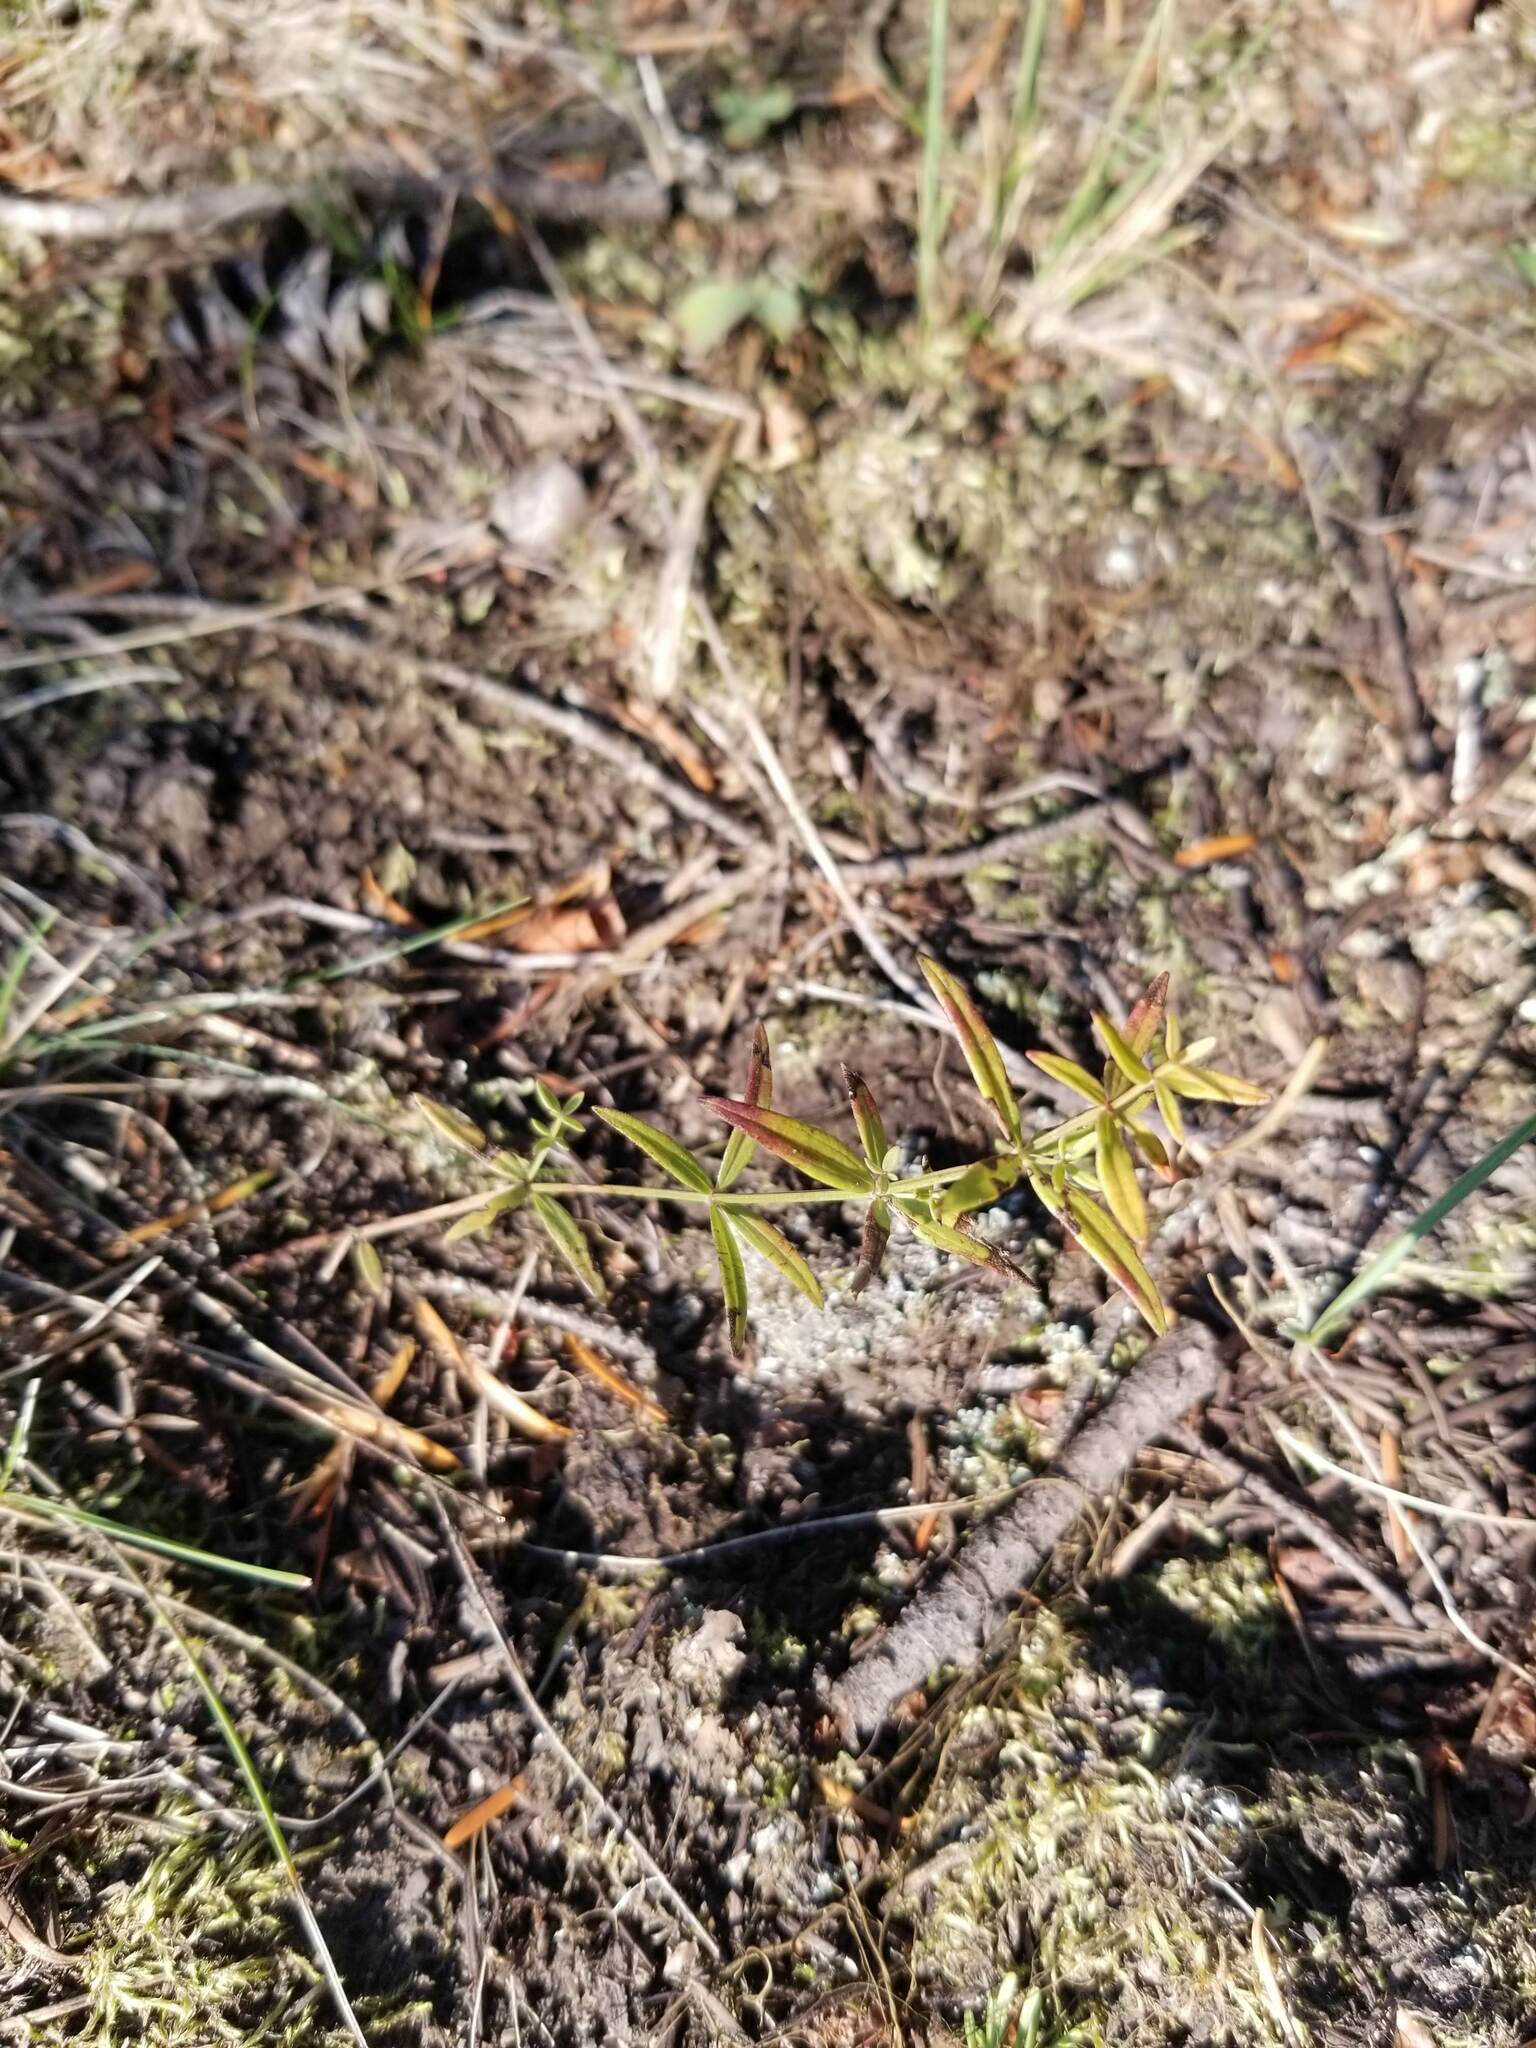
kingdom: Plantae
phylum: Tracheophyta
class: Magnoliopsida
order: Gentianales
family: Rubiaceae
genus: Galium
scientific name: Galium boreale
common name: Northern bedstraw
